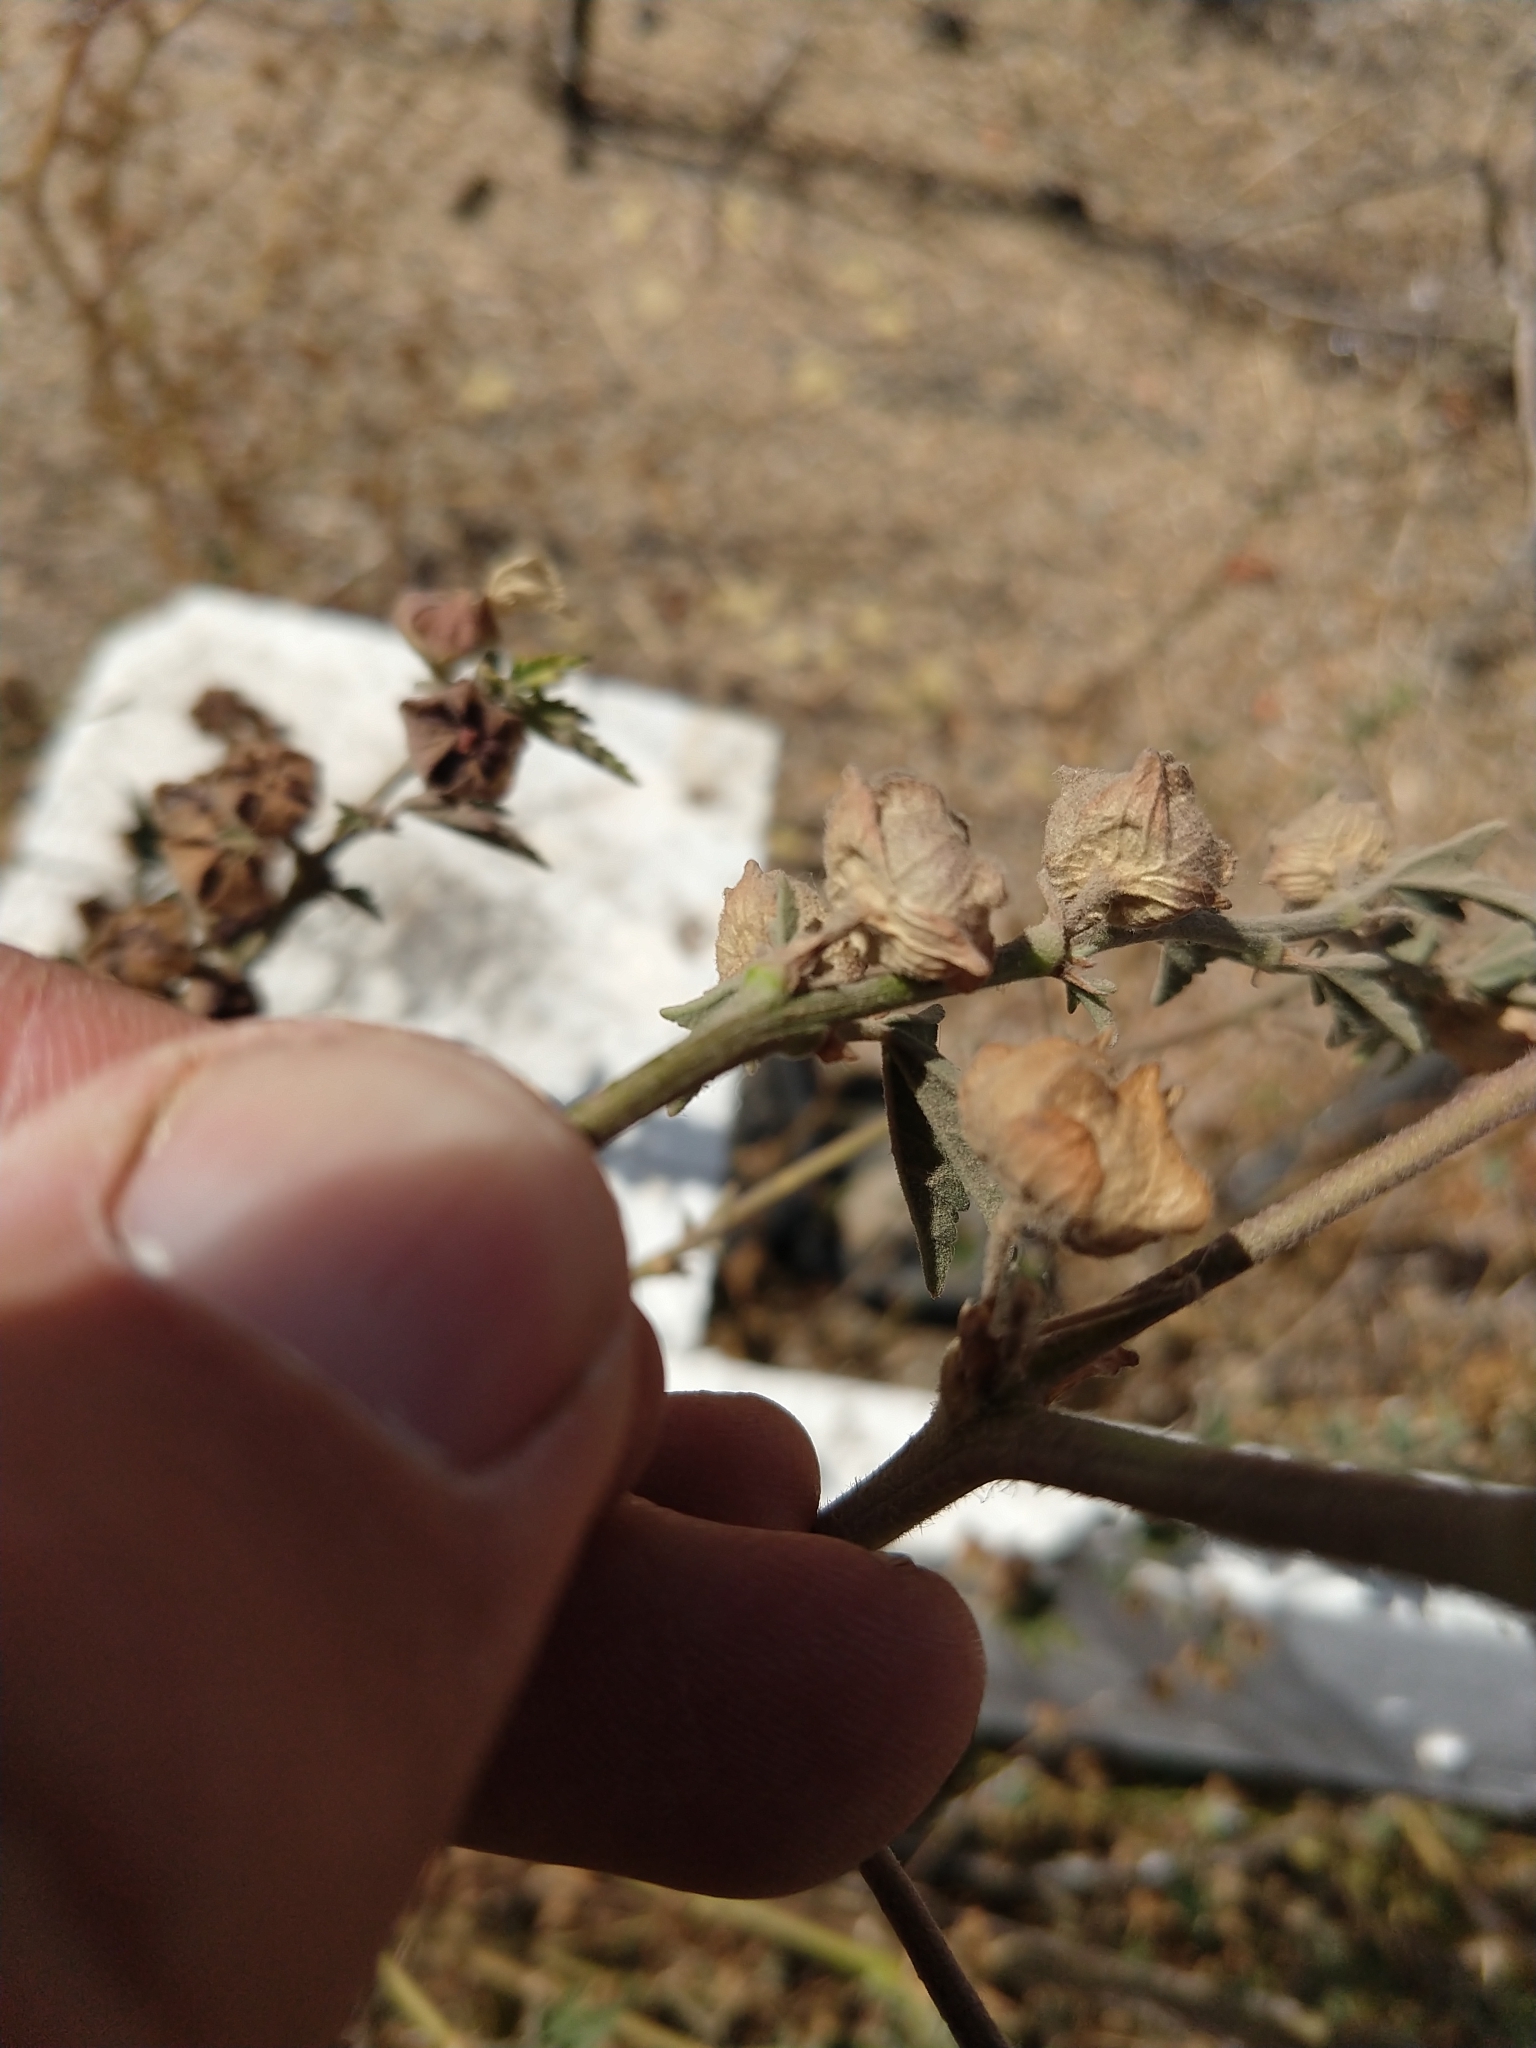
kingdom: Plantae
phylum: Tracheophyta
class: Magnoliopsida
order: Malvales
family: Malvaceae
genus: Malva
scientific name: Malva multiflora
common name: Cheeseweed
